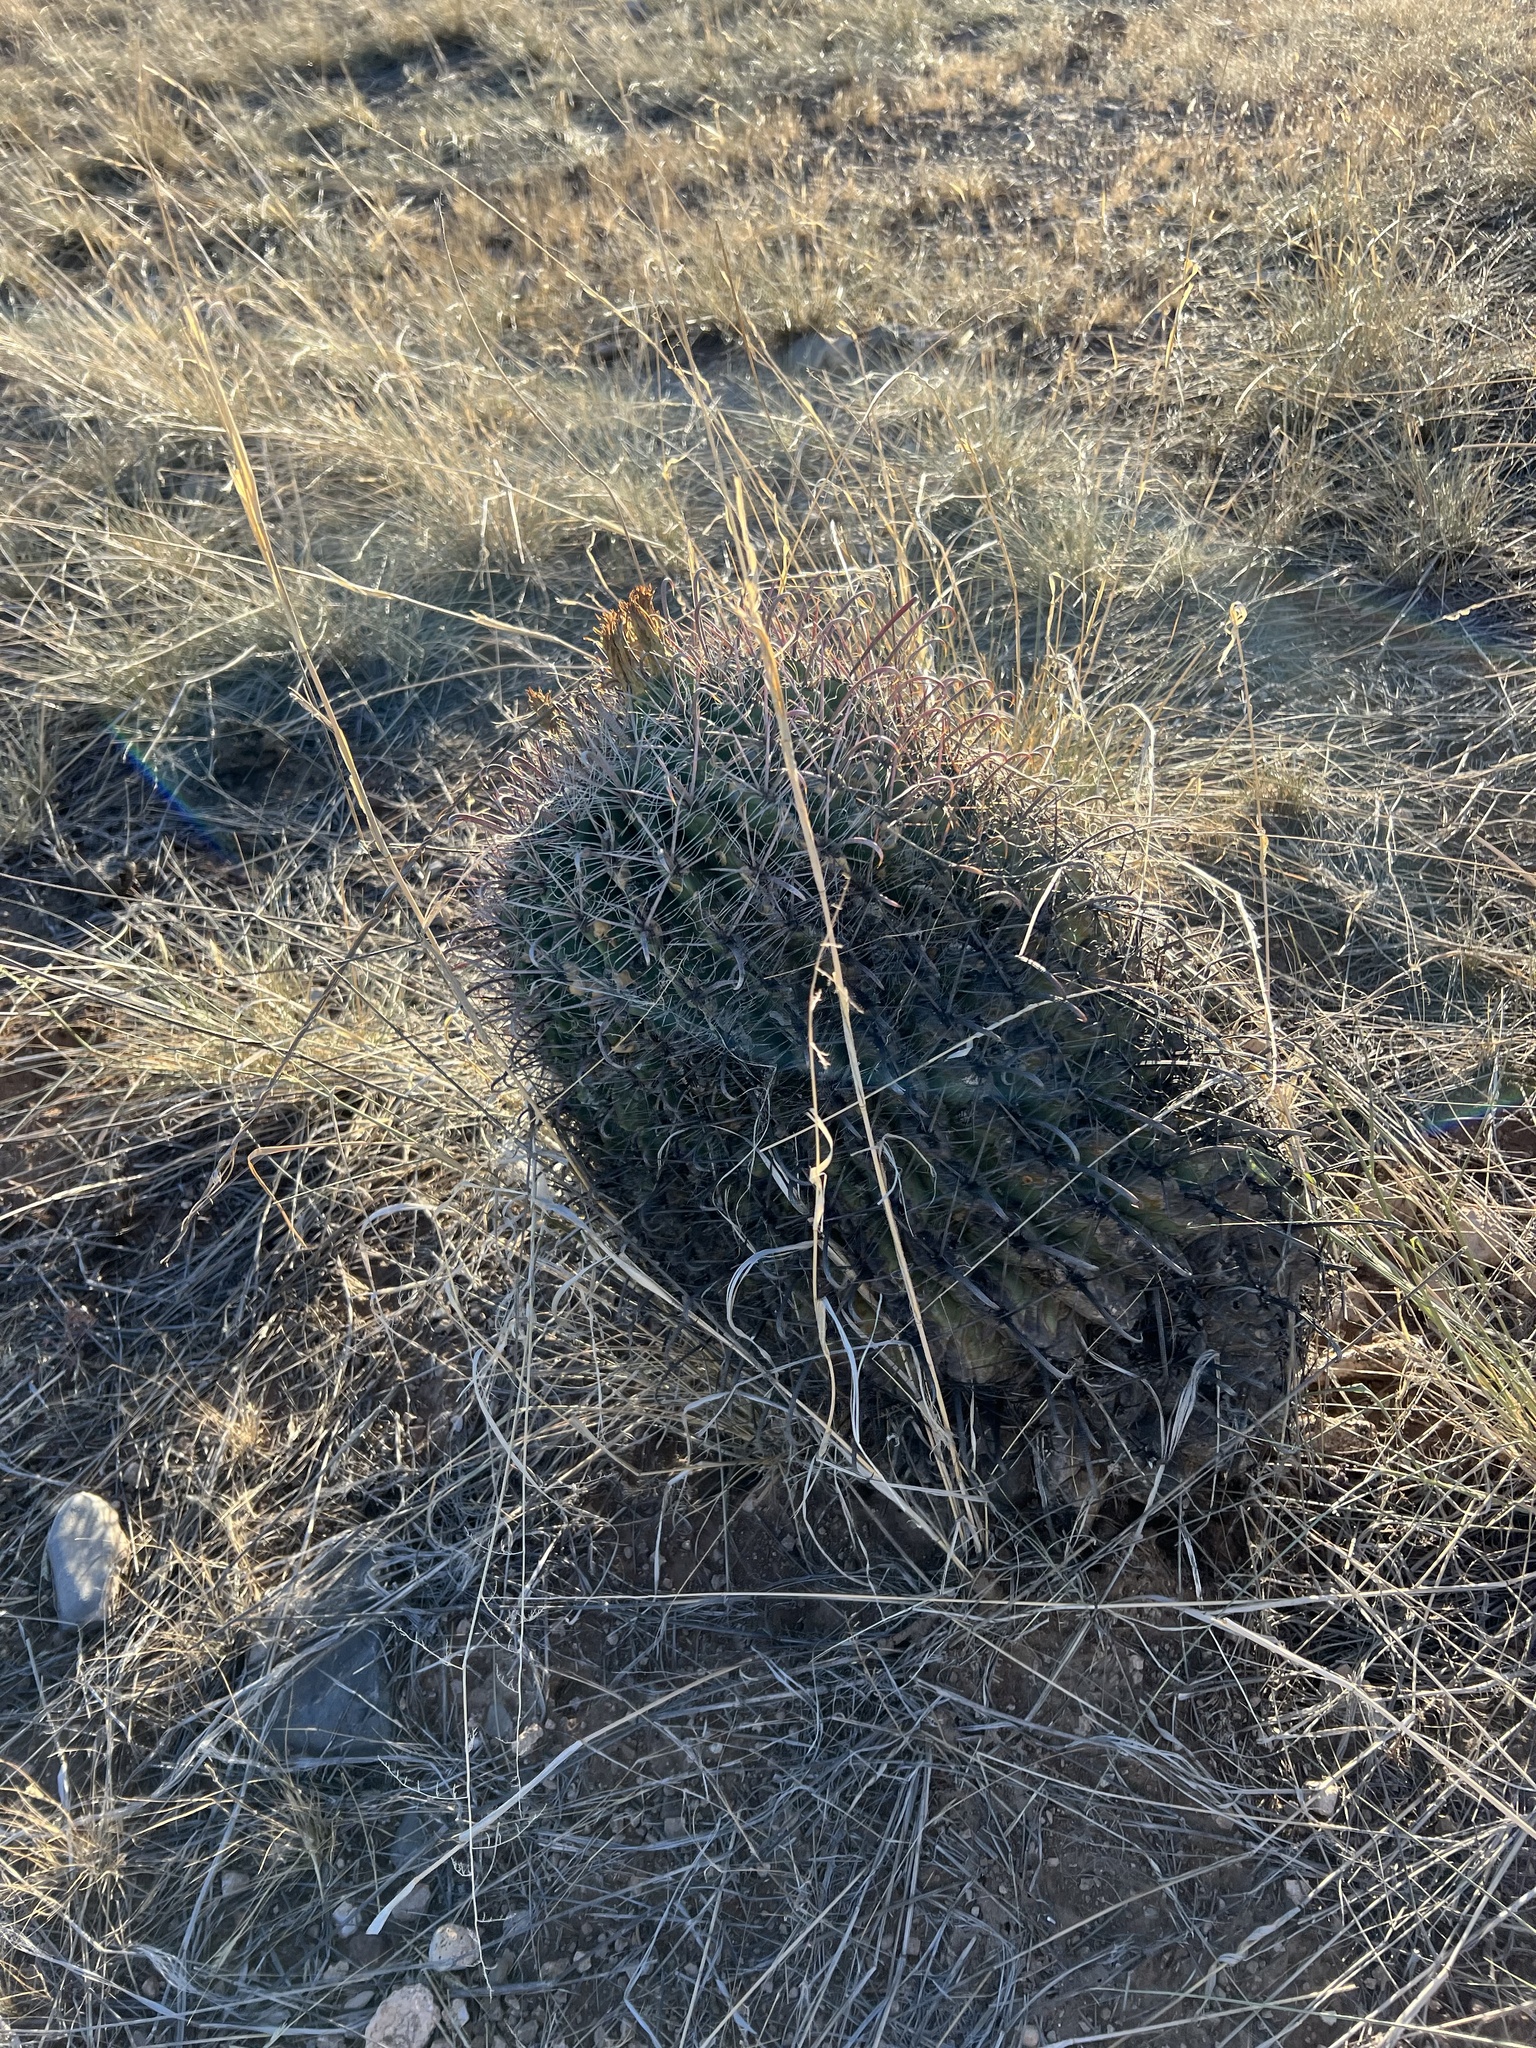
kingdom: Plantae
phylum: Tracheophyta
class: Magnoliopsida
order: Caryophyllales
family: Cactaceae
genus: Ferocactus
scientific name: Ferocactus wislizeni
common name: Candy barrel cactus
